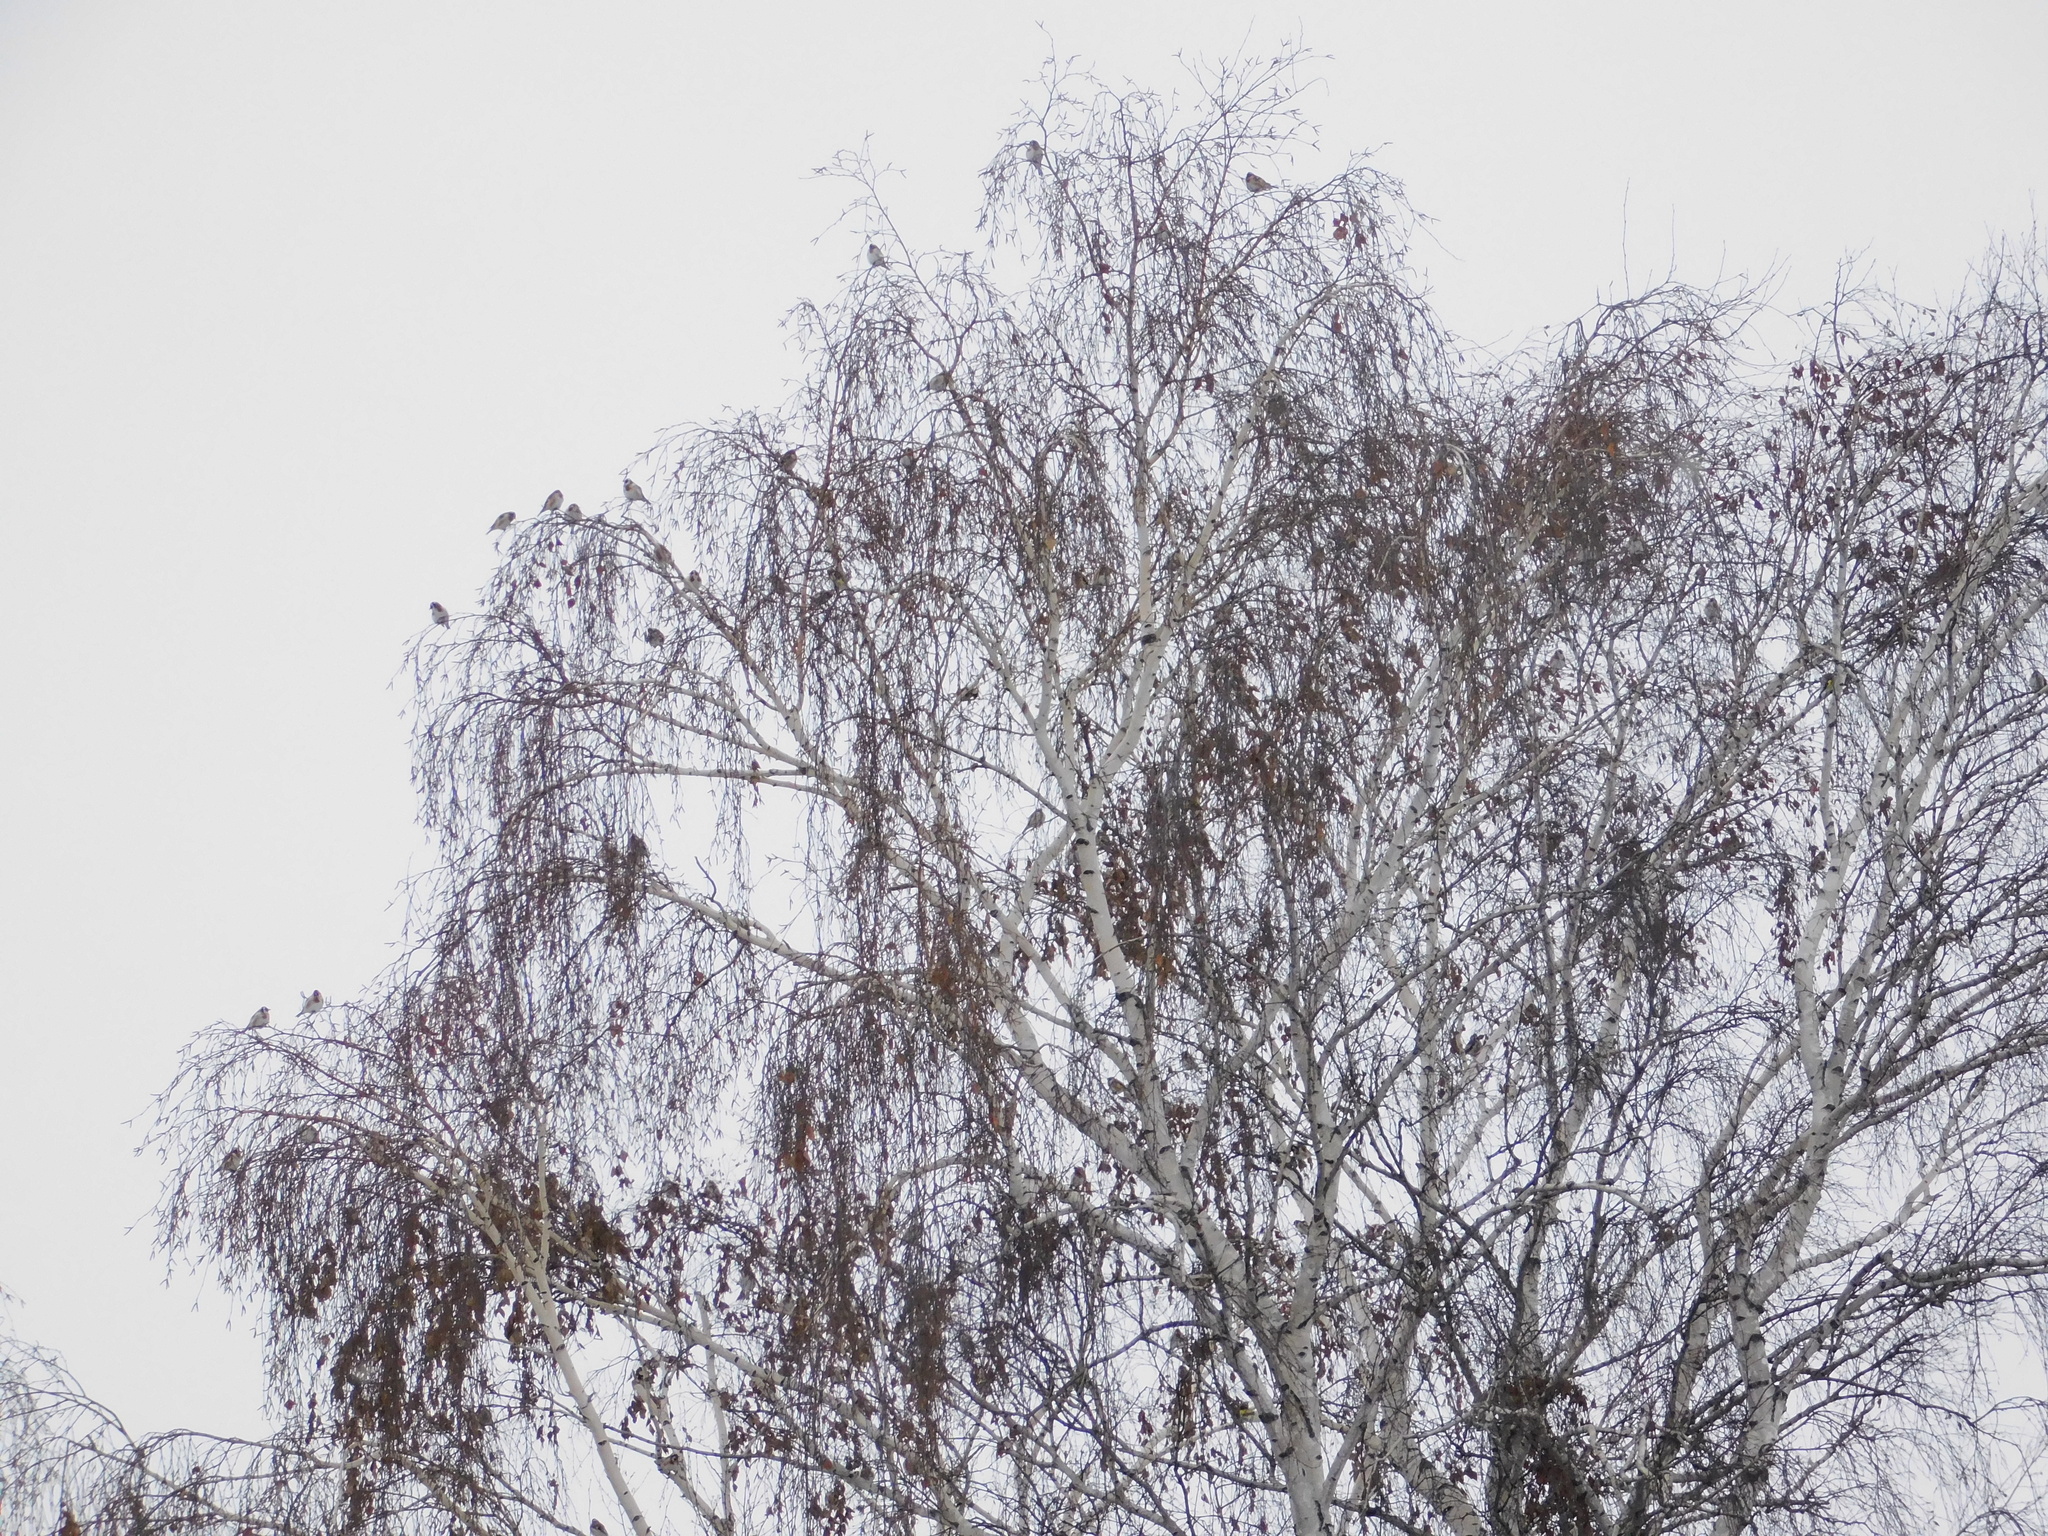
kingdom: Animalia
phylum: Chordata
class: Aves
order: Passeriformes
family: Fringillidae
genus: Carduelis
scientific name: Carduelis carduelis
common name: European goldfinch
